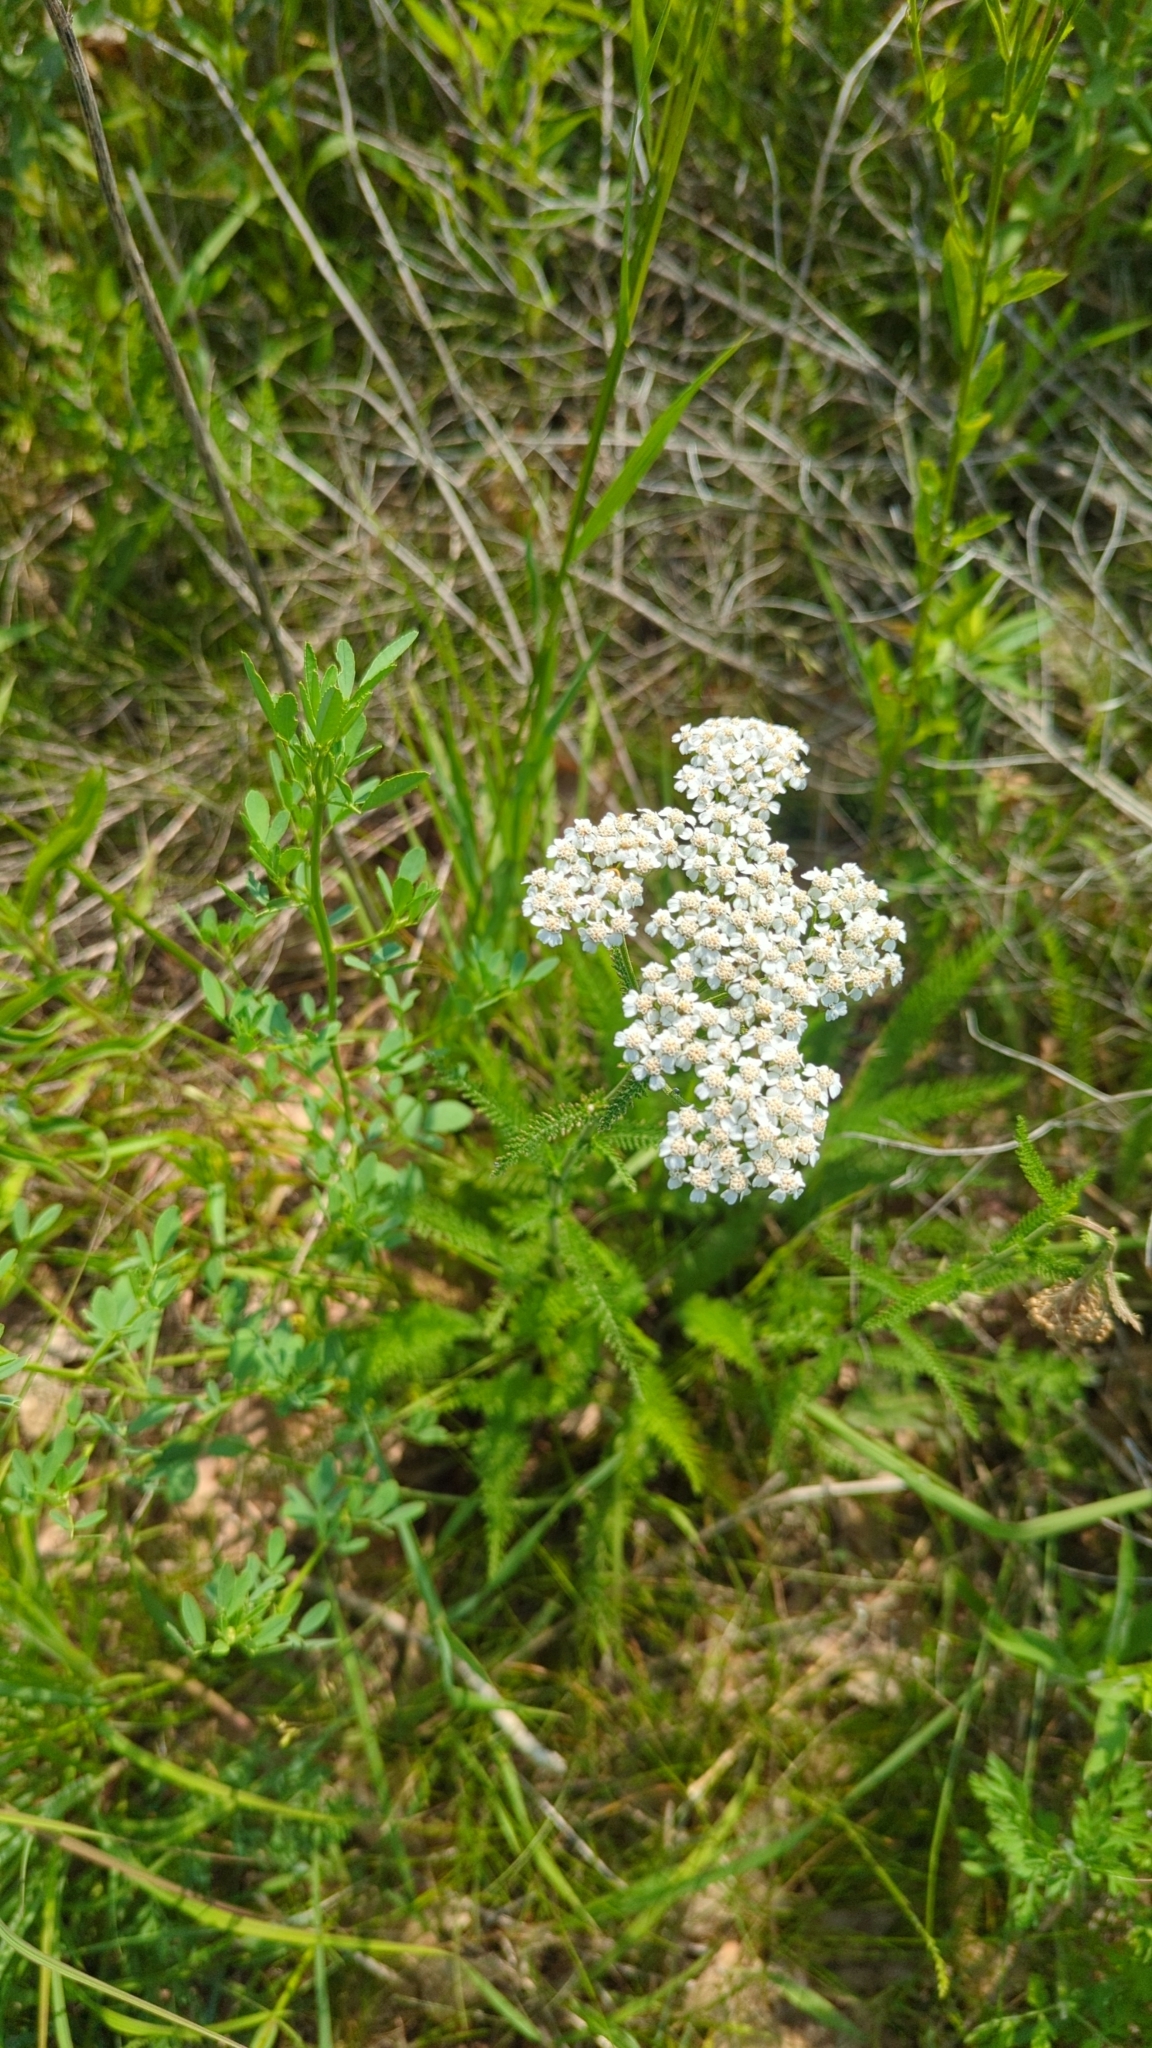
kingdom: Plantae
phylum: Tracheophyta
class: Magnoliopsida
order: Asterales
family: Asteraceae
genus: Achillea
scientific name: Achillea millefolium
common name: Yarrow
